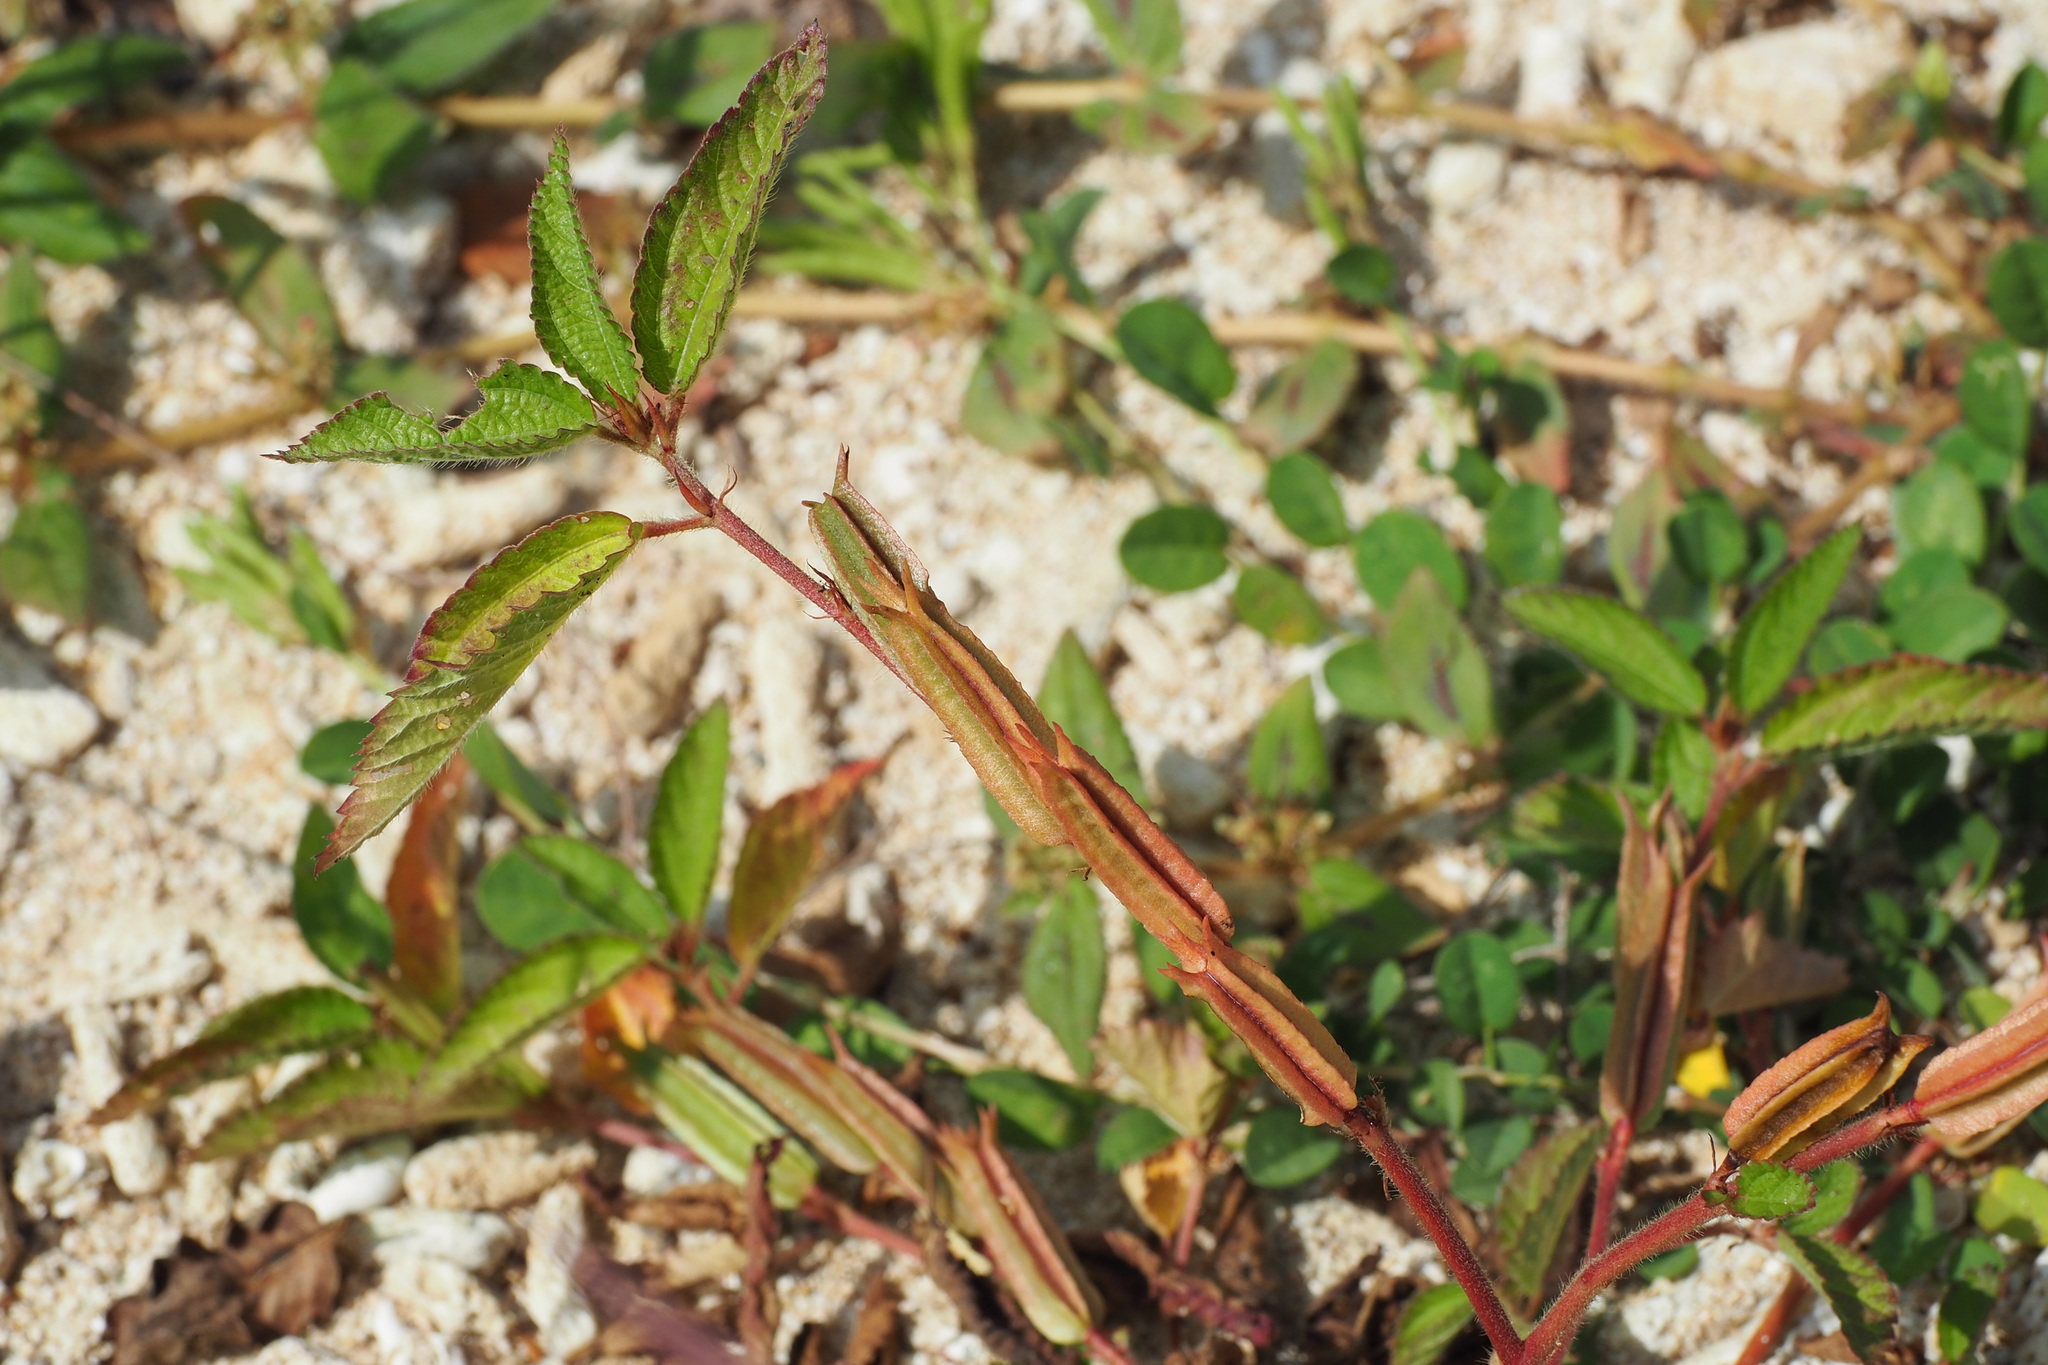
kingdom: Plantae
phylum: Tracheophyta
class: Magnoliopsida
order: Malvales
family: Malvaceae
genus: Corchorus
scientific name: Corchorus aestuans
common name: Jute
